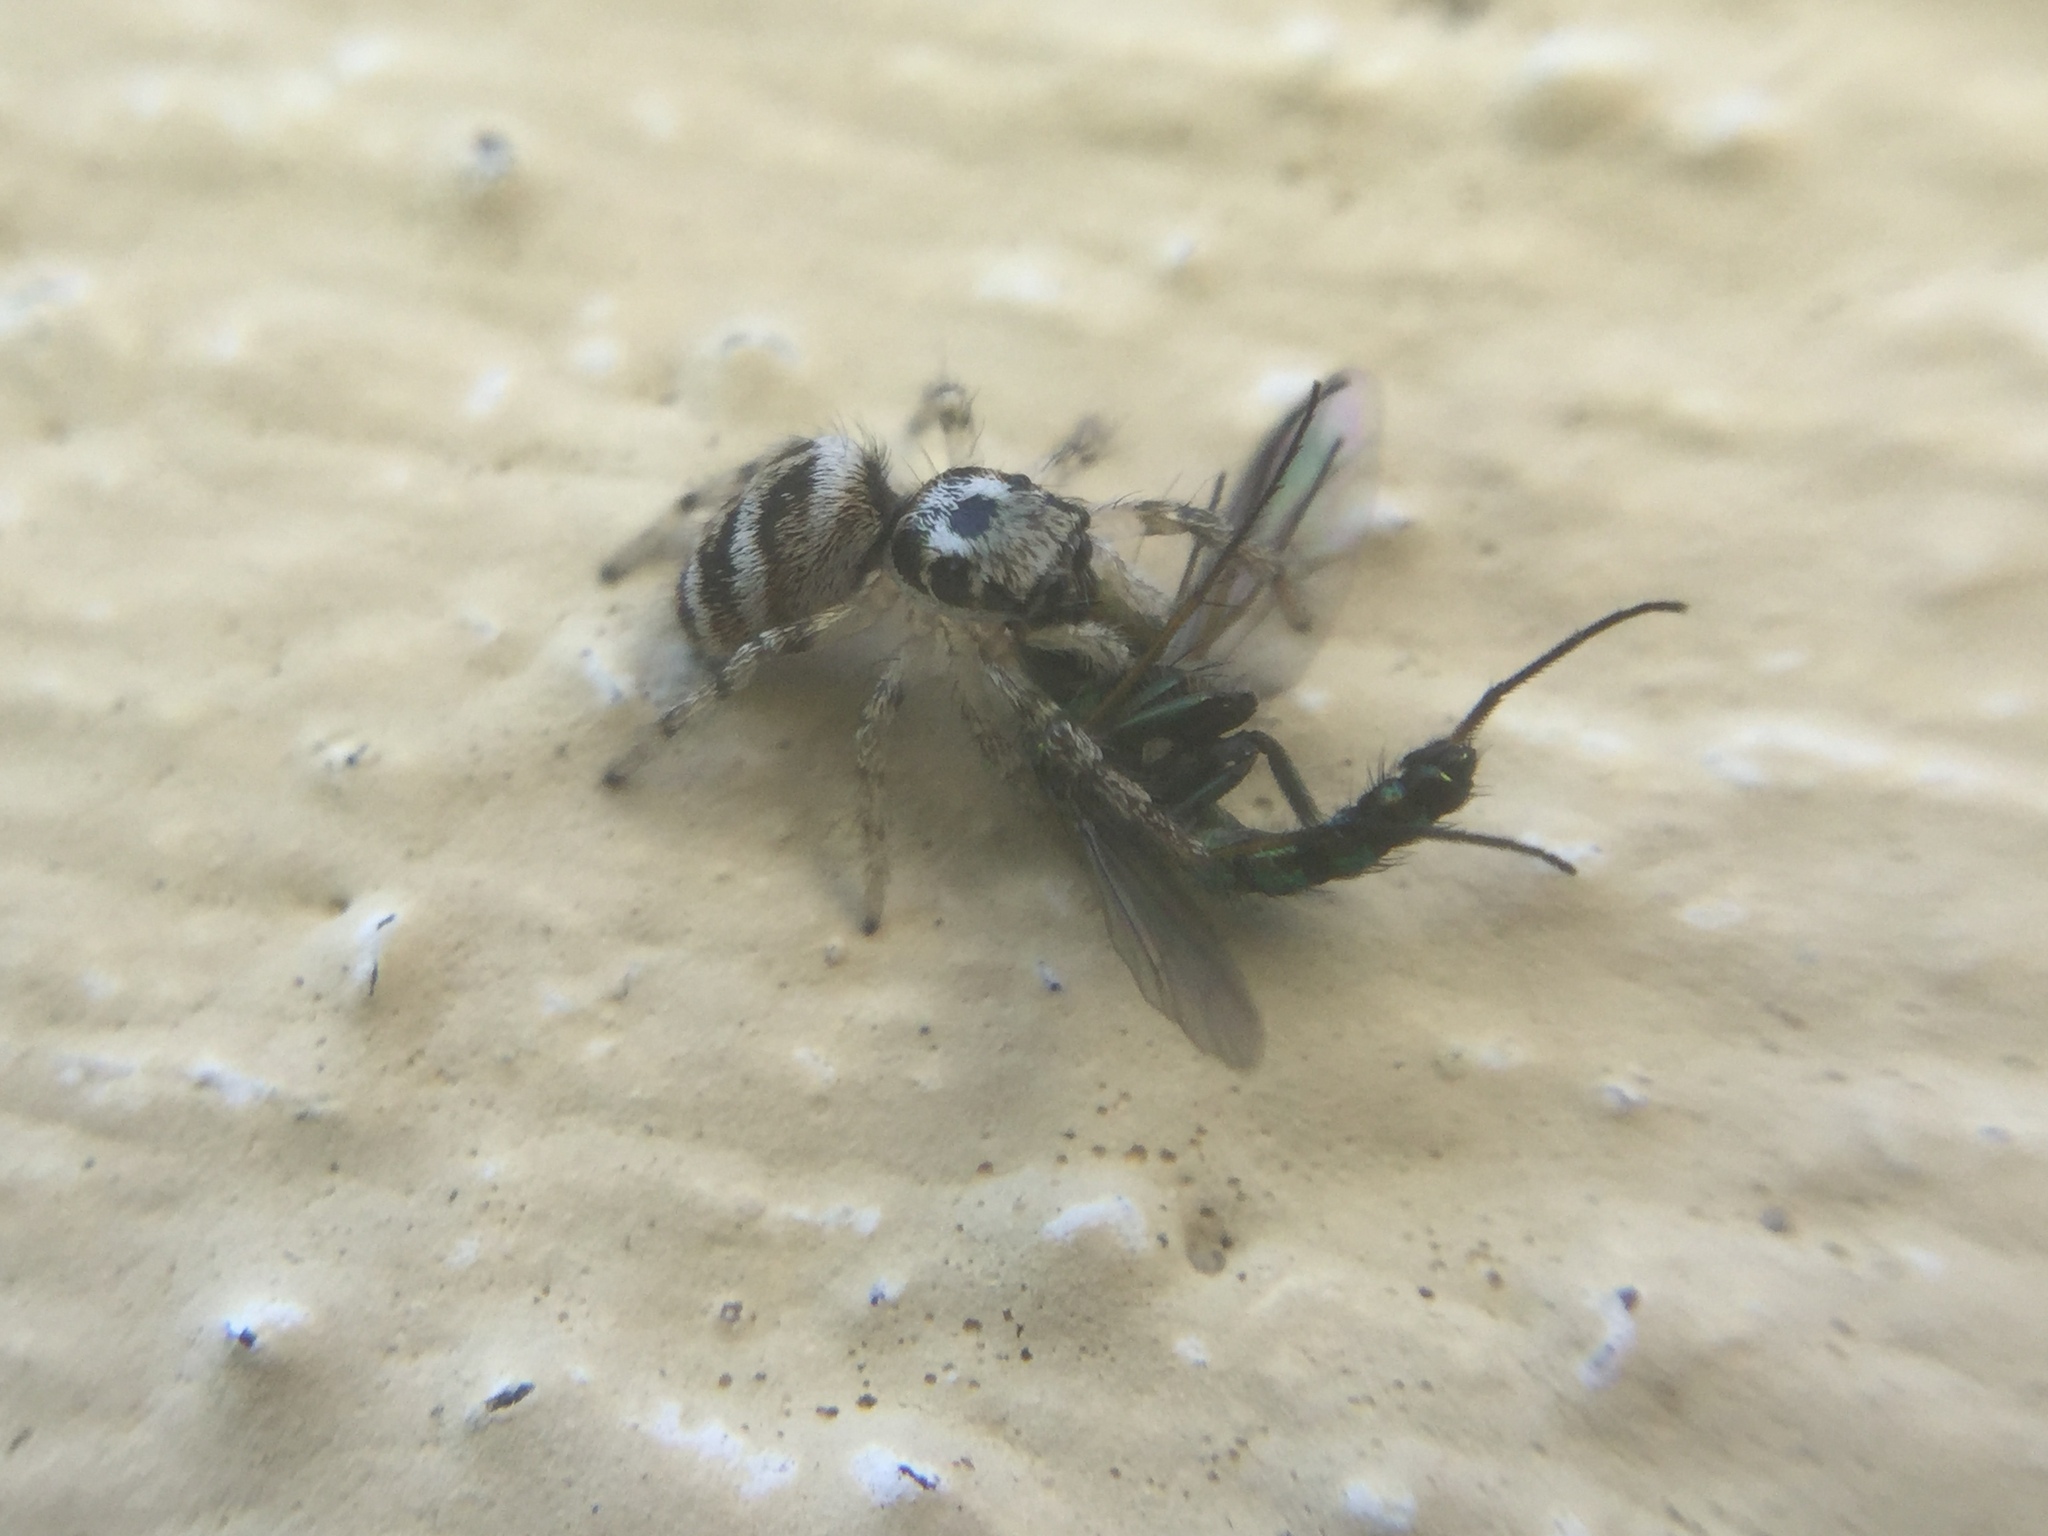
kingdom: Animalia
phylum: Arthropoda
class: Arachnida
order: Araneae
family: Salticidae
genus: Salticus
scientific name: Salticus scenicus
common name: Zebra jumper
